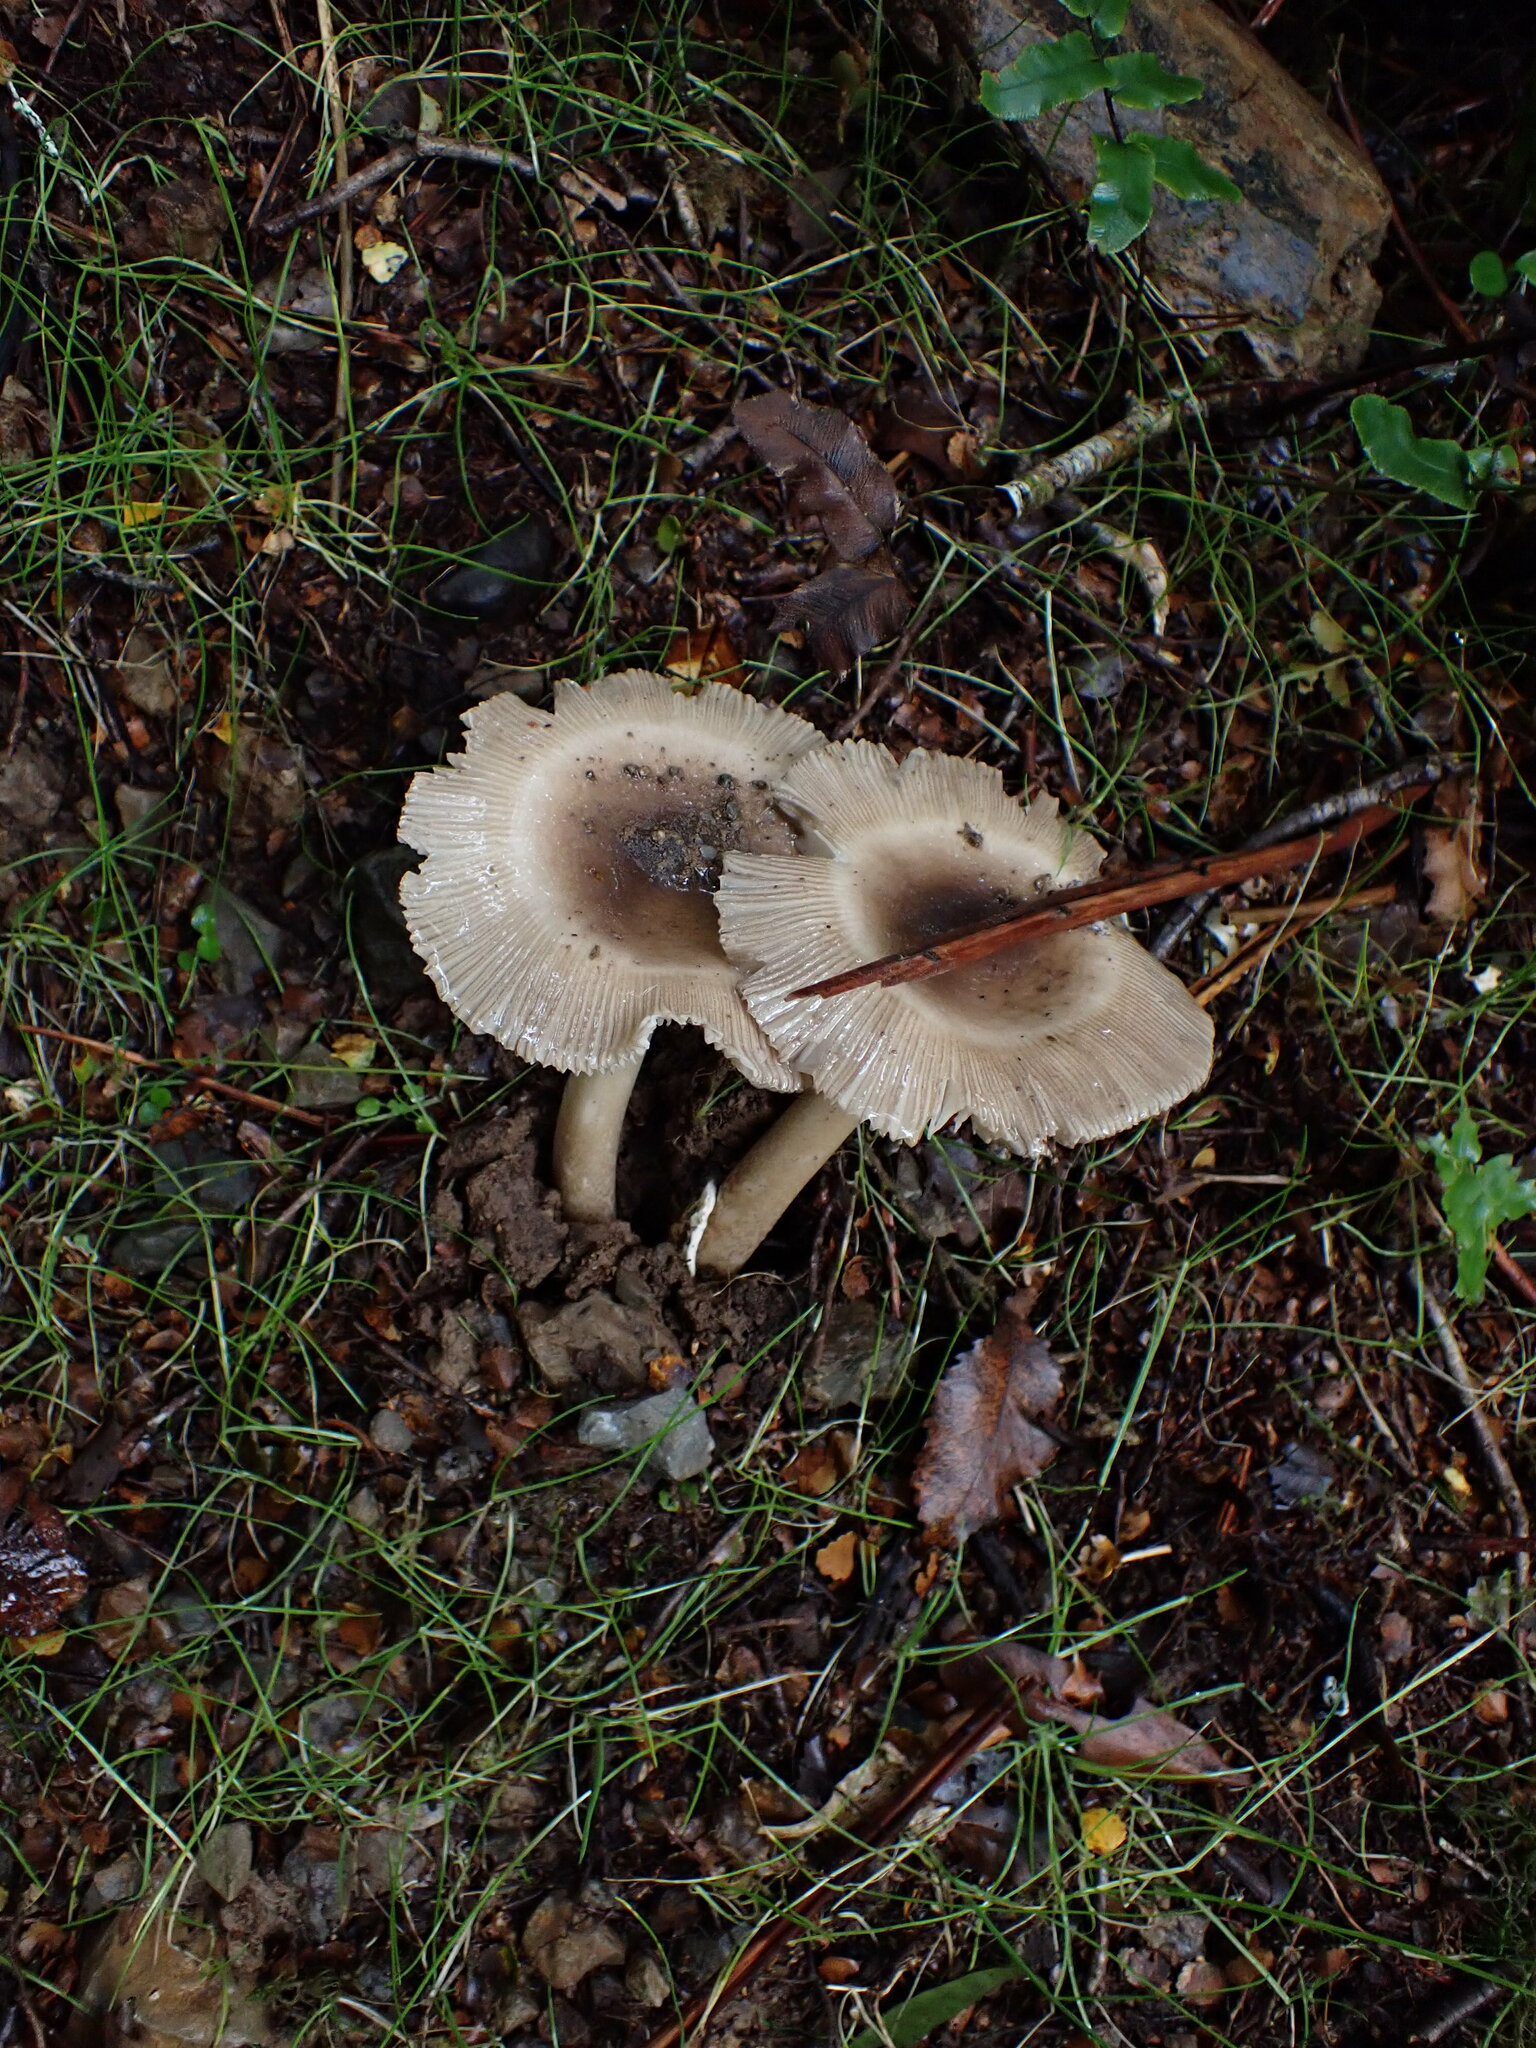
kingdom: Fungi
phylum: Basidiomycota
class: Agaricomycetes
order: Agaricales
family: Amanitaceae
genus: Amanita
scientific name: Amanita pekeoides
